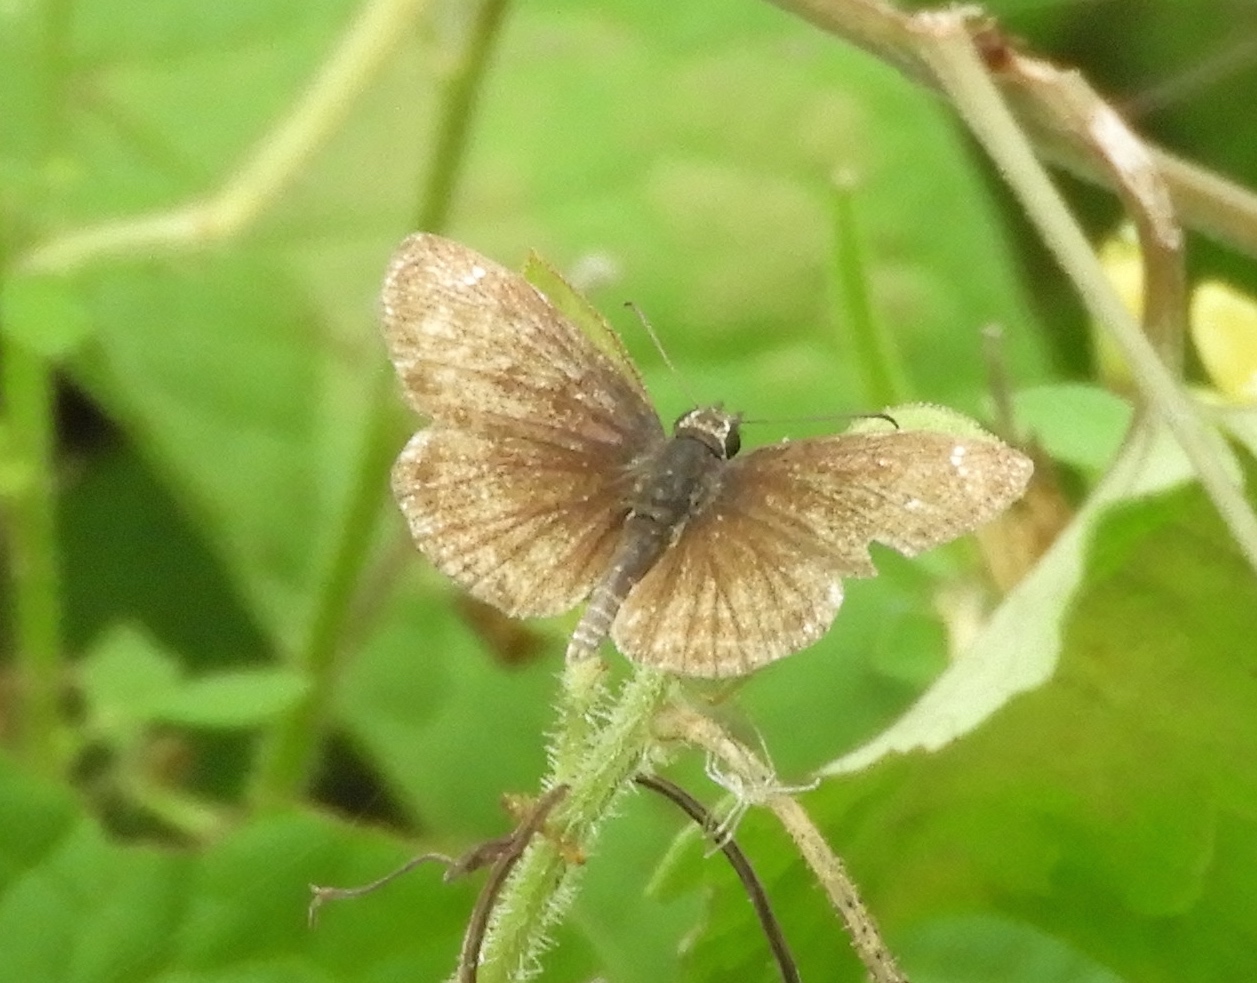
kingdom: Animalia
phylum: Arthropoda
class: Insecta
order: Lepidoptera
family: Hesperiidae
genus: Zopyrion
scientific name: Zopyrion sandace
